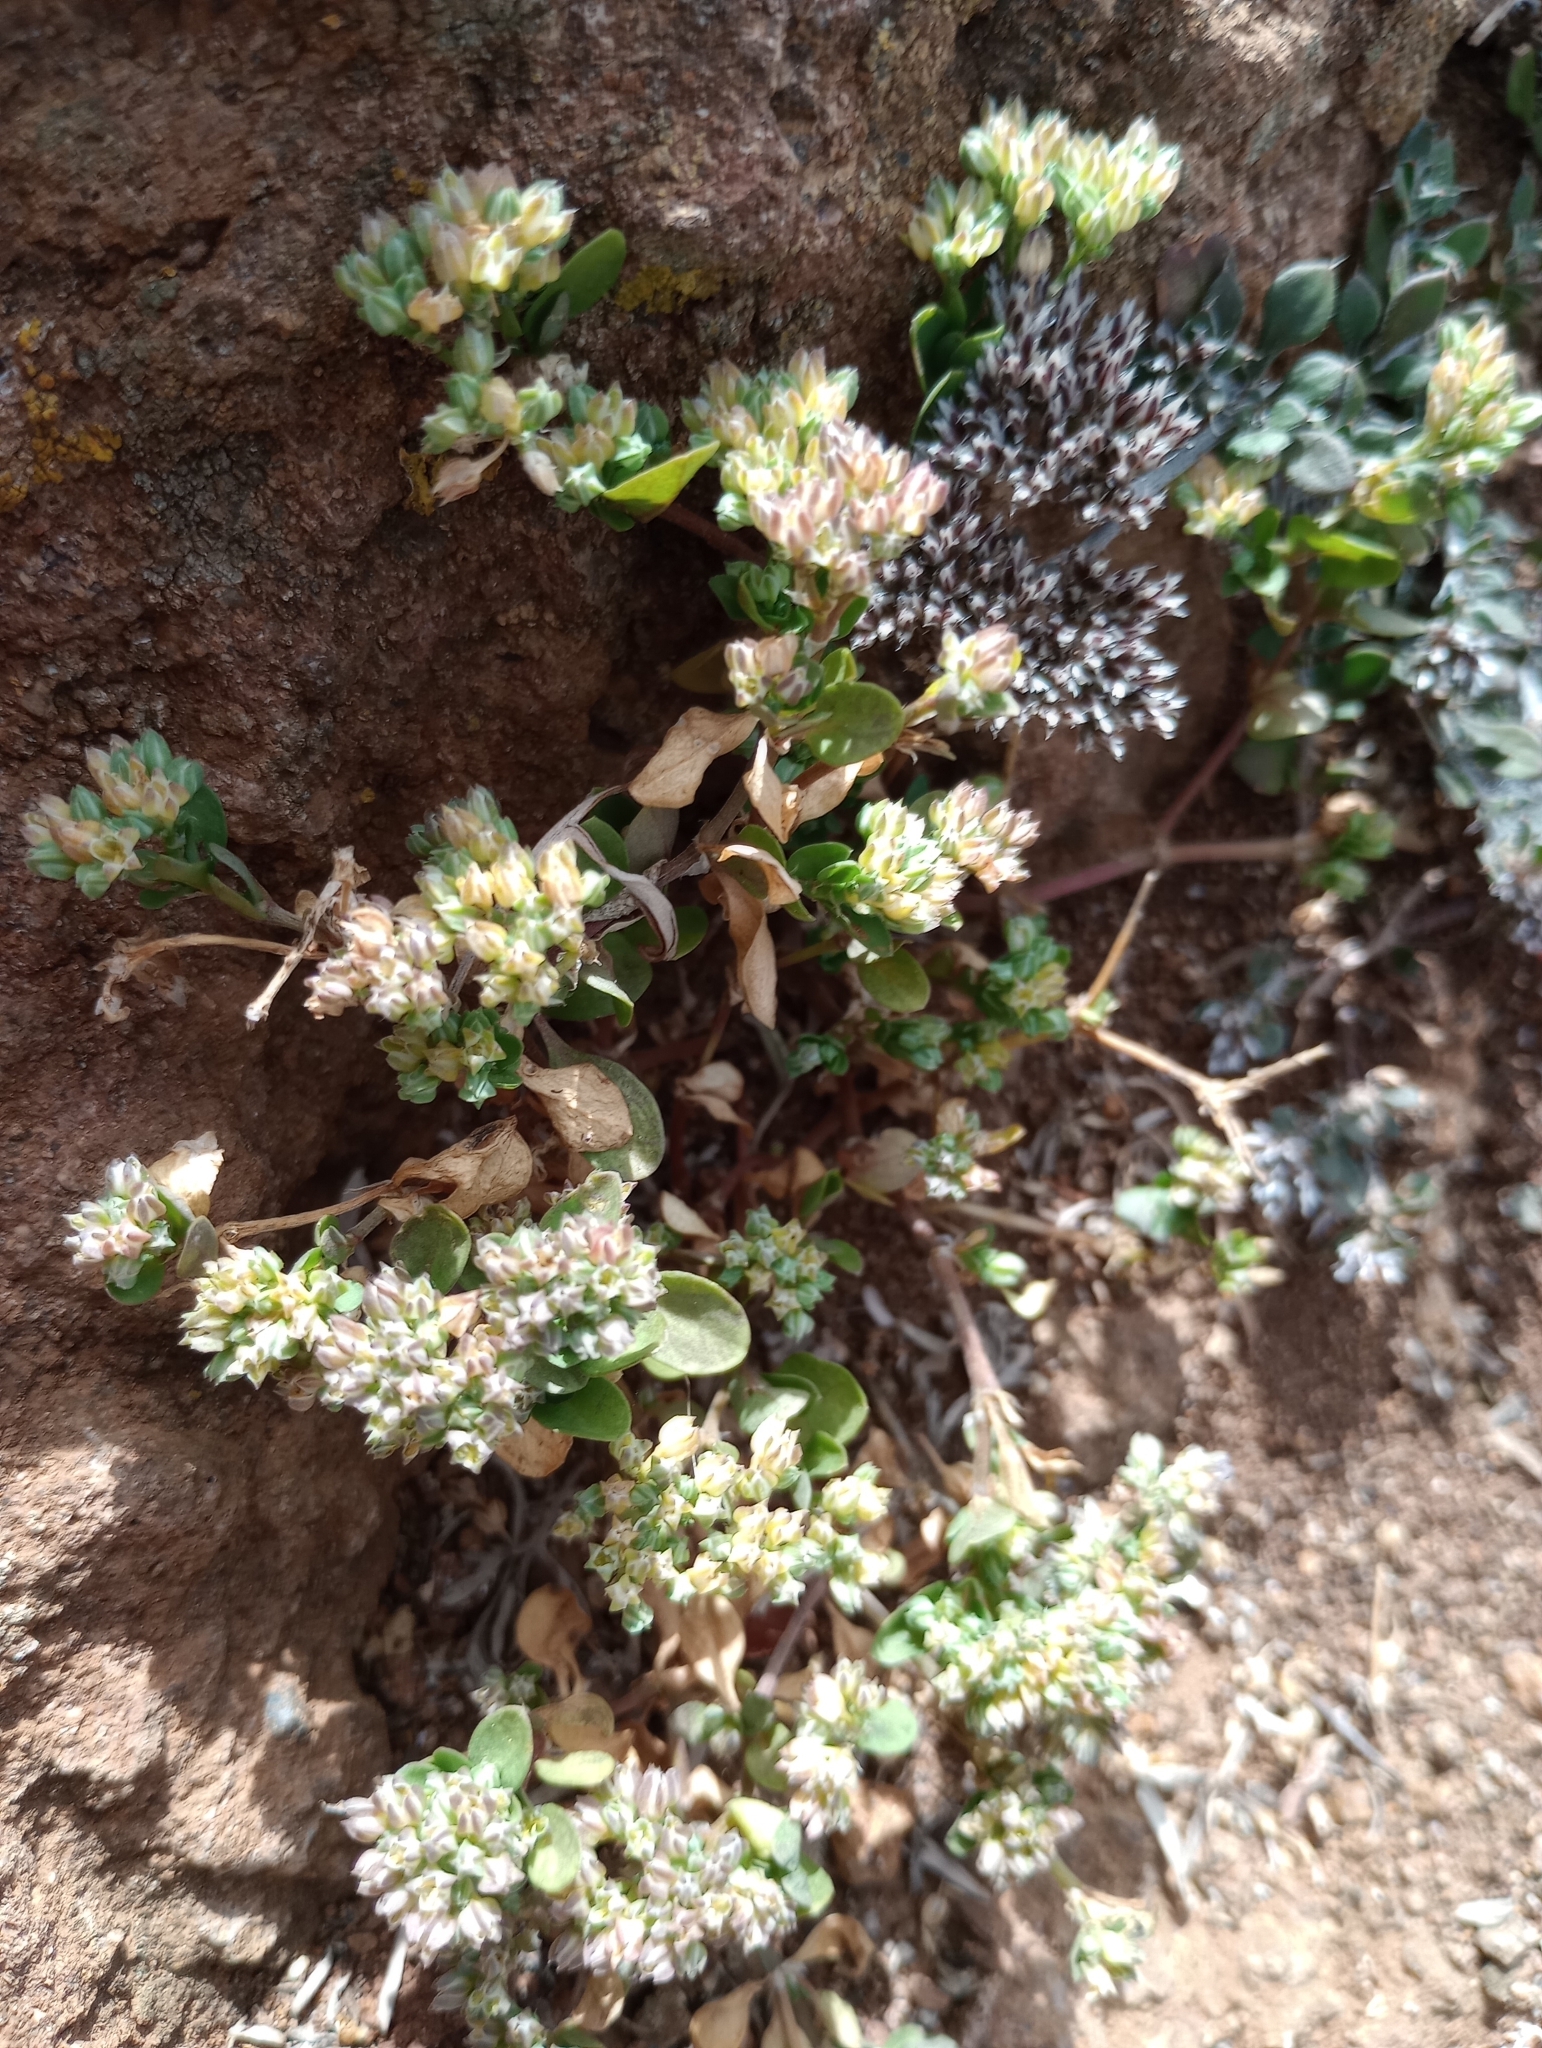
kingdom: Plantae
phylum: Tracheophyta
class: Magnoliopsida
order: Caryophyllales
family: Caryophyllaceae
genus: Polycarpon
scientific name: Polycarpon tetraphyllum
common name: Four-leaved all-seed
